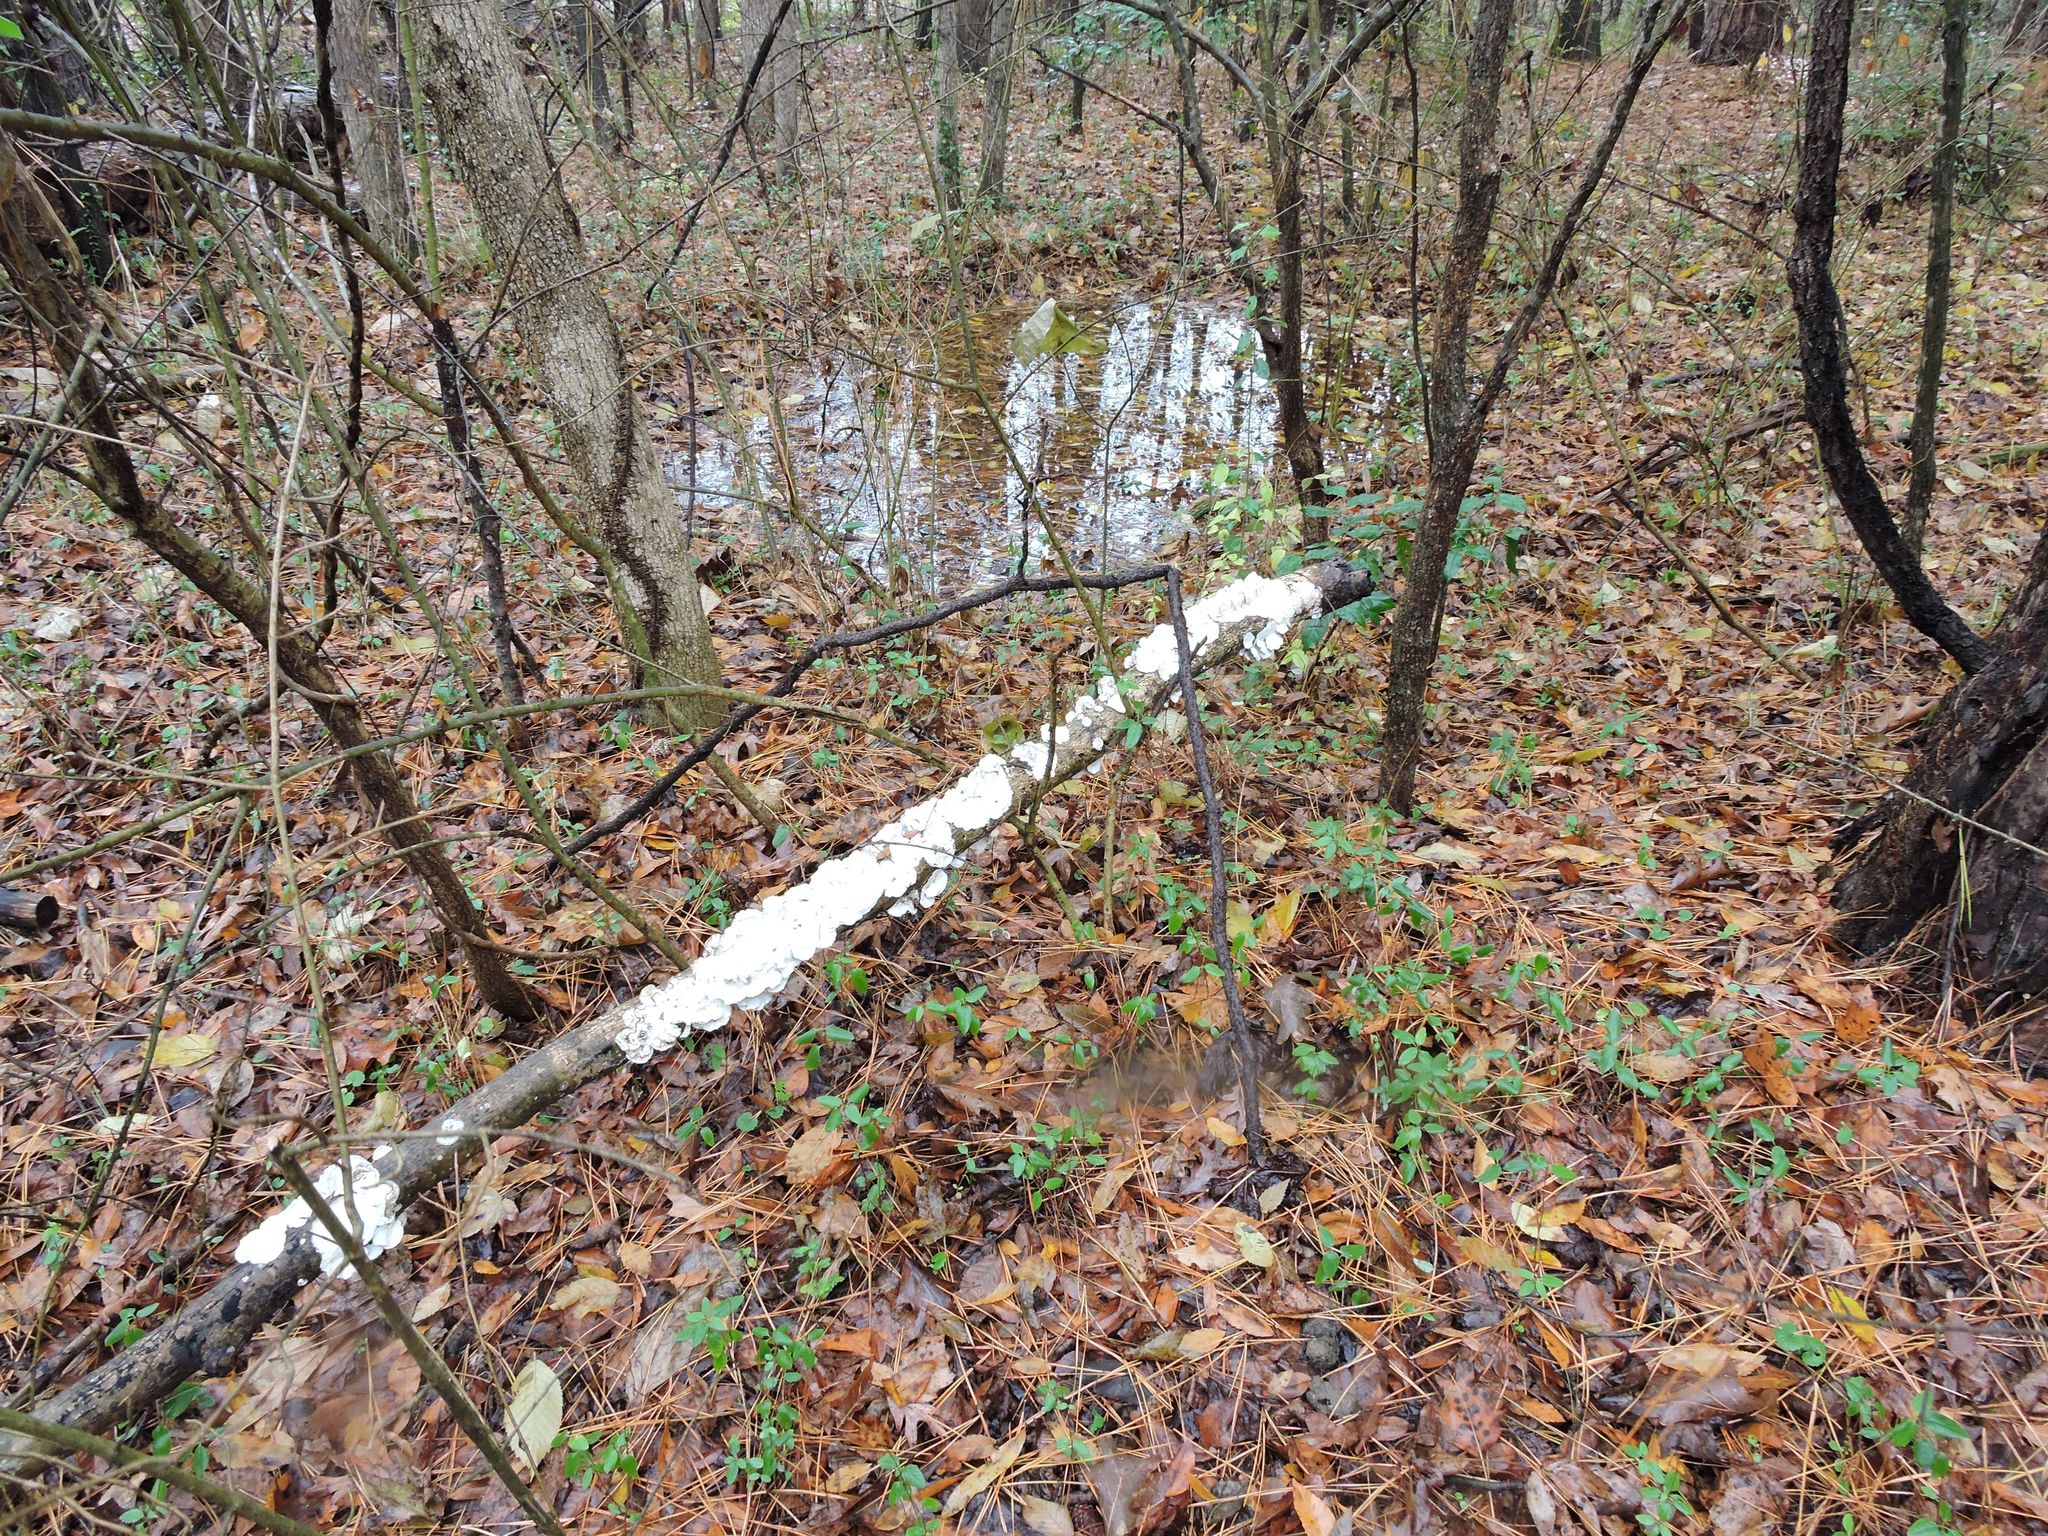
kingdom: Fungi
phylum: Basidiomycota
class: Agaricomycetes
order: Polyporales
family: Polyporaceae
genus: Trametes
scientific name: Trametes versicolor
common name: Turkeytail
